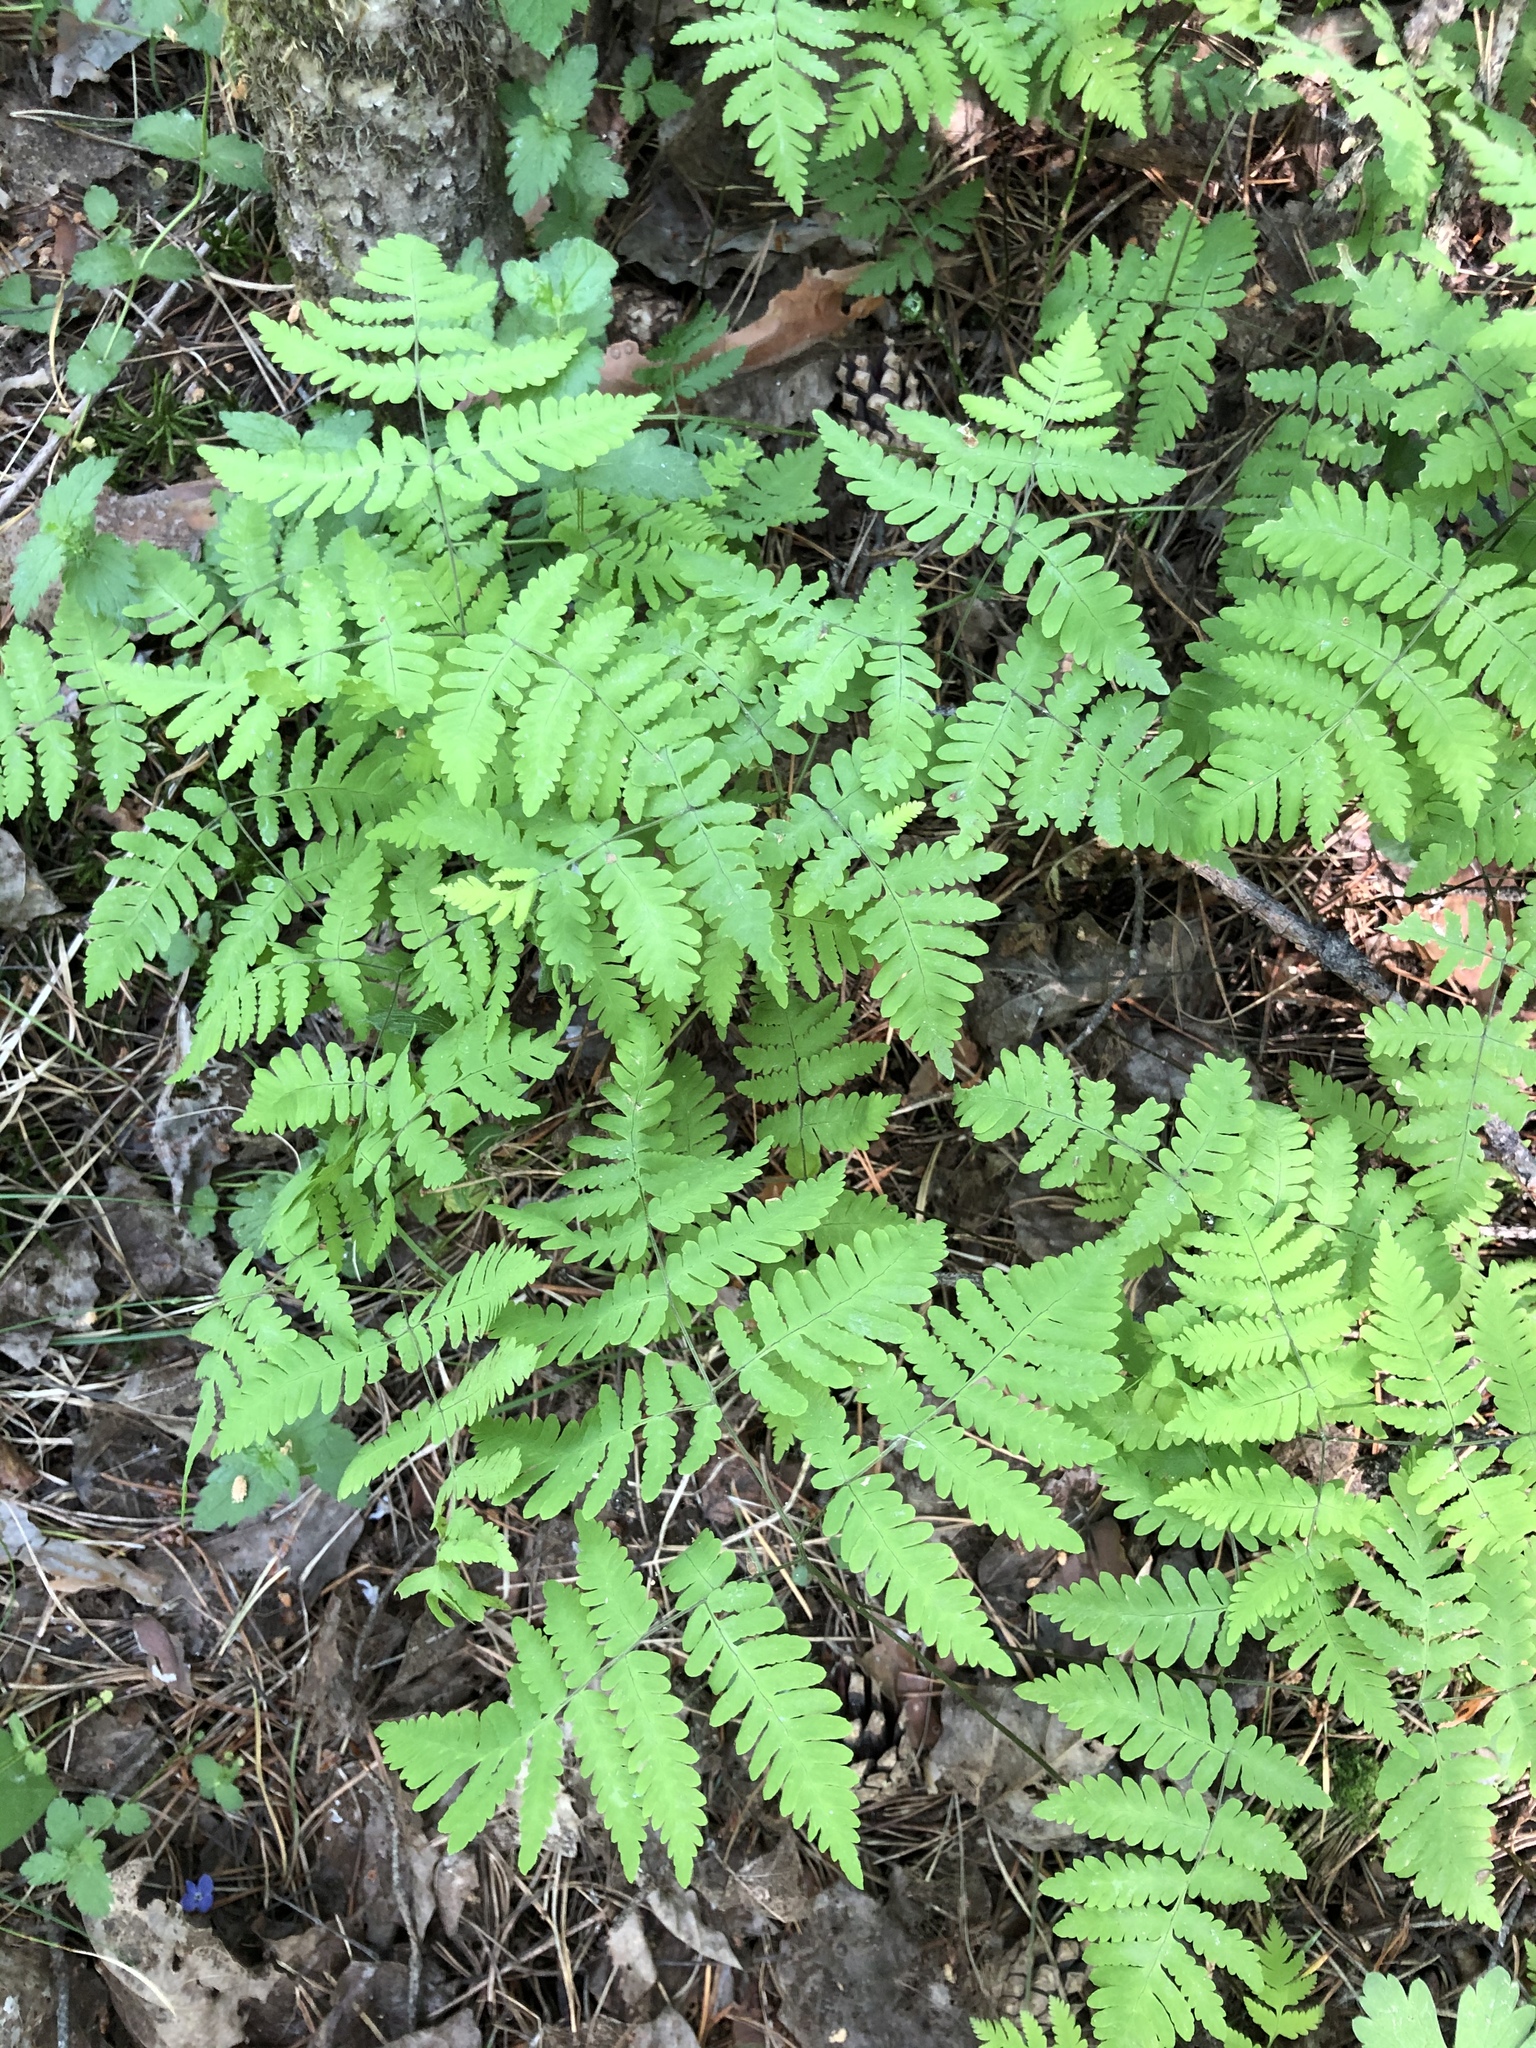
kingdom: Plantae
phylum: Tracheophyta
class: Polypodiopsida
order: Polypodiales
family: Cystopteridaceae
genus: Gymnocarpium
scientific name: Gymnocarpium dryopteris
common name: Oak fern
